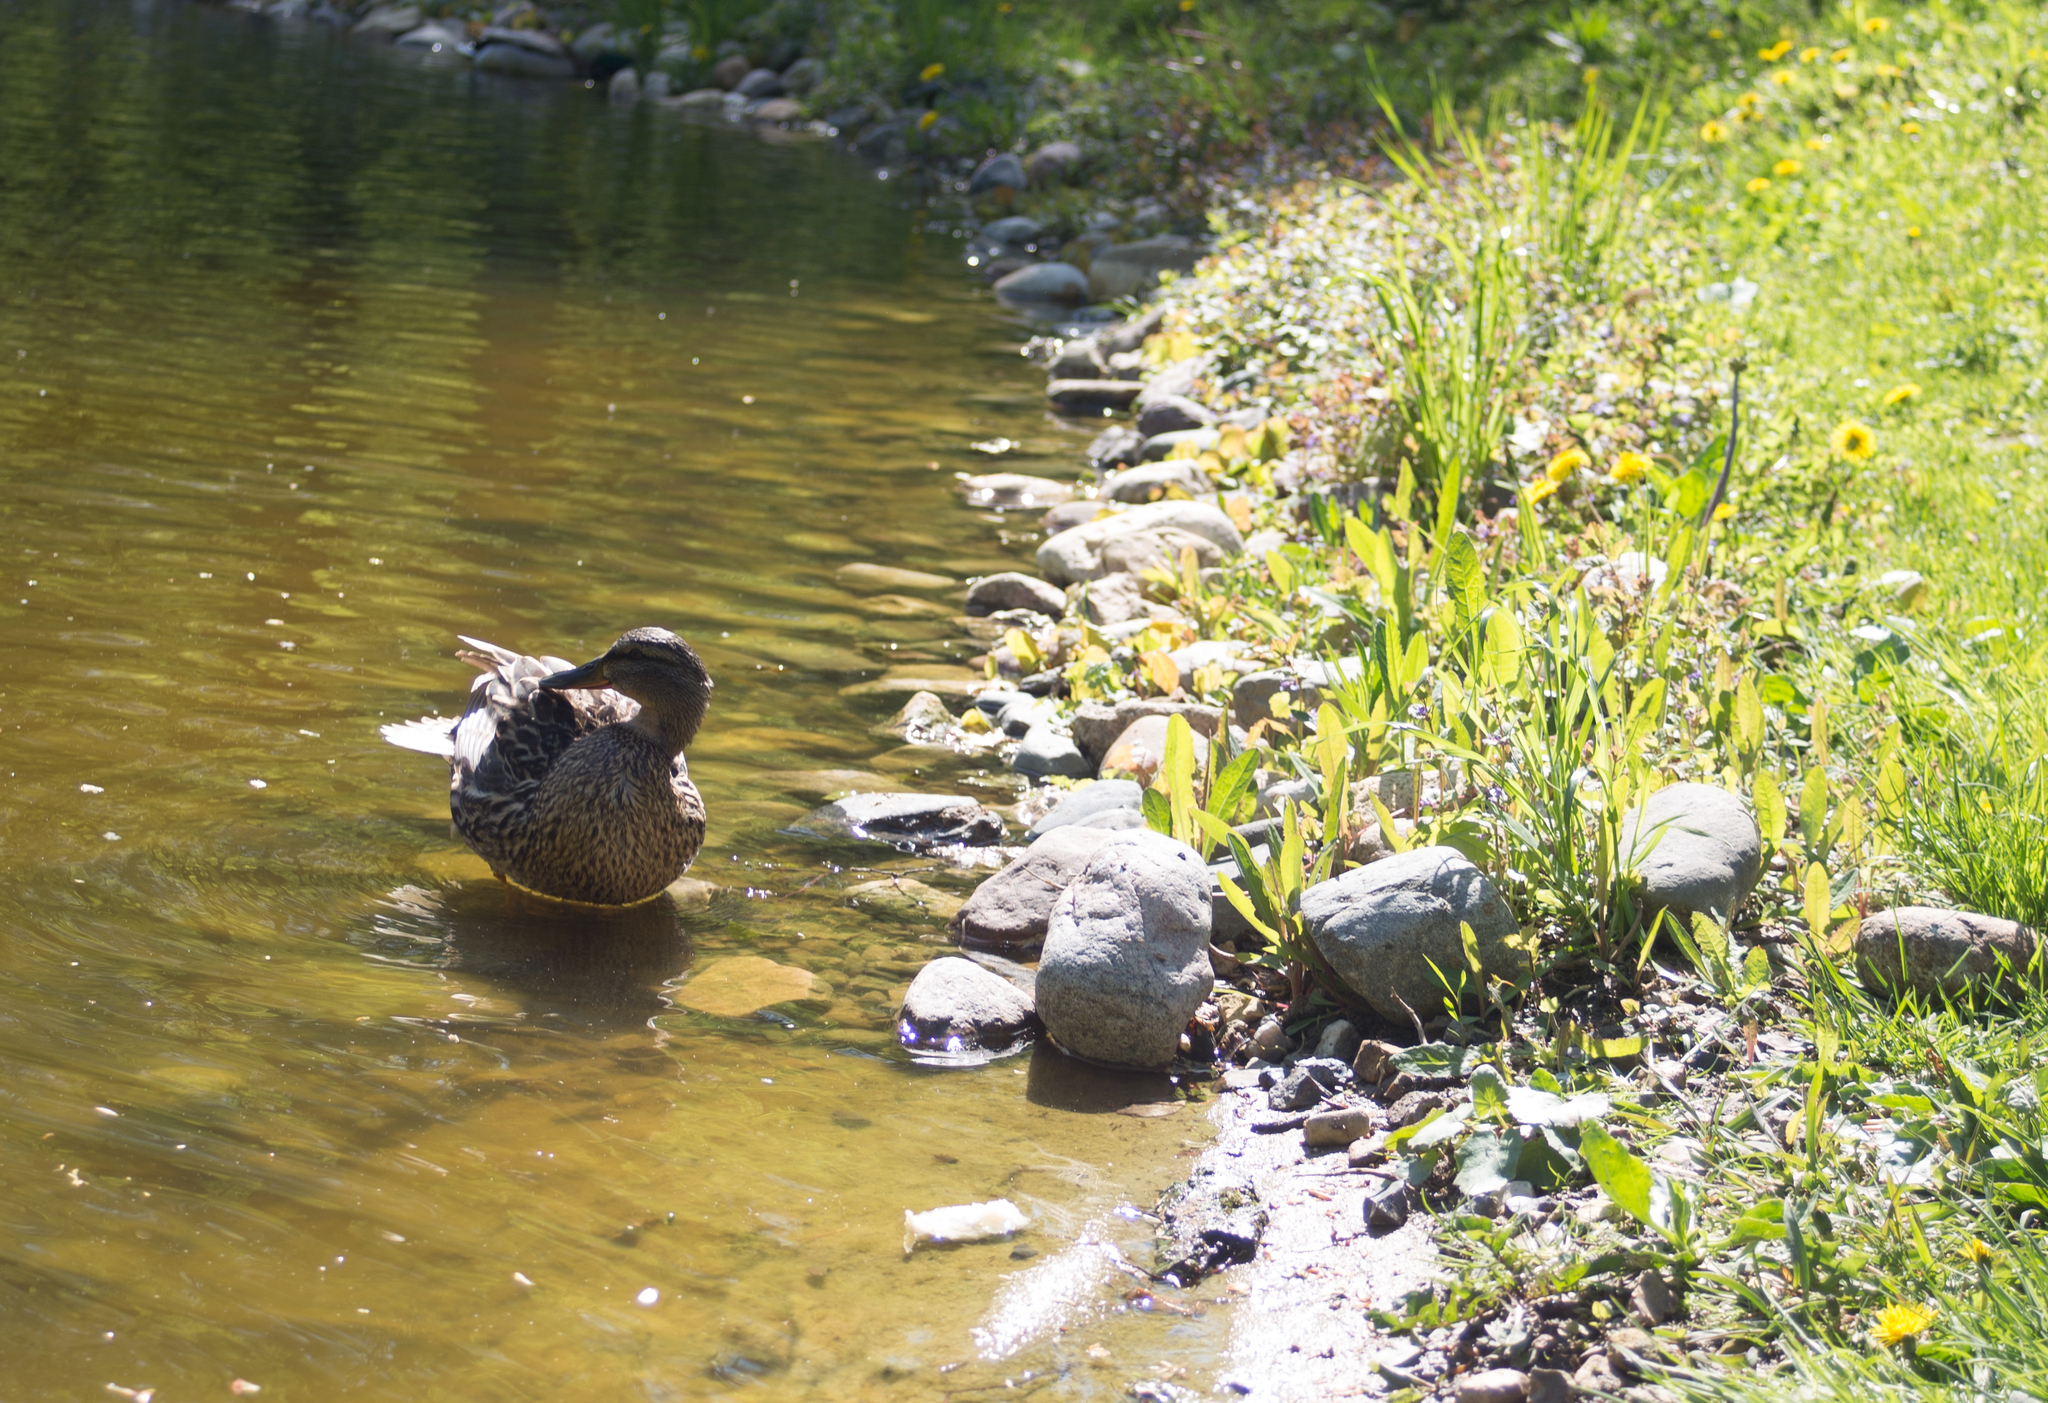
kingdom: Animalia
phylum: Chordata
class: Aves
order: Anseriformes
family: Anatidae
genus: Anas
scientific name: Anas platyrhynchos
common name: Mallard
